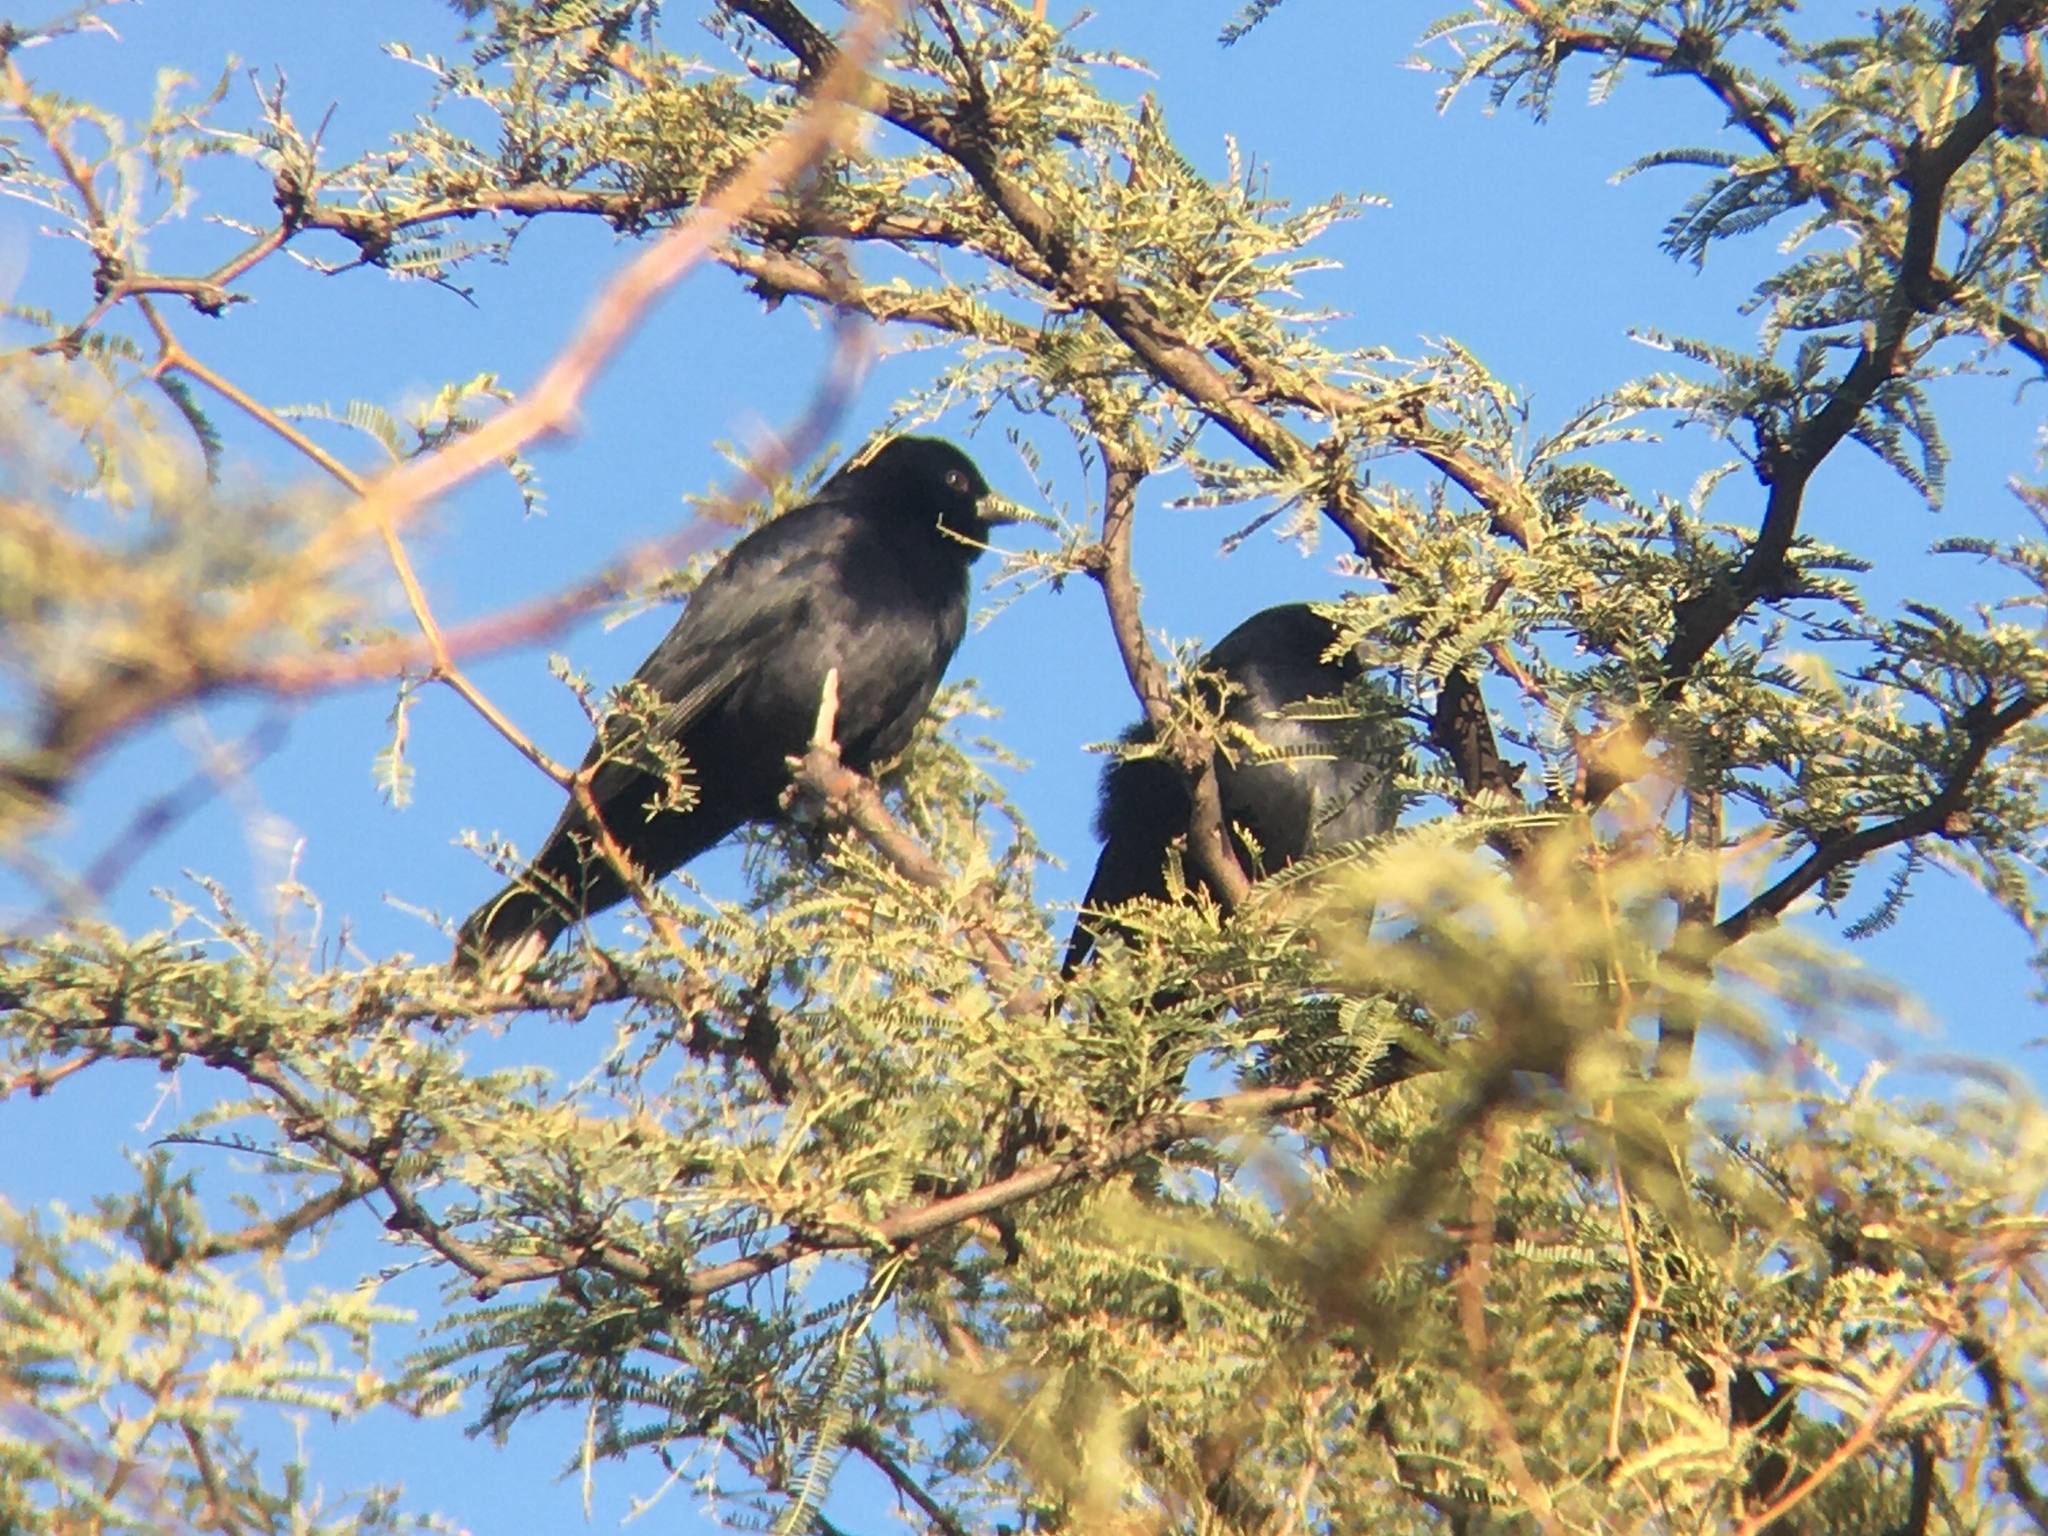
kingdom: Animalia
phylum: Chordata
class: Aves
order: Passeriformes
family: Icteridae
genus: Molothrus
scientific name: Molothrus rufoaxillaris
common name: Screaming cowbird
